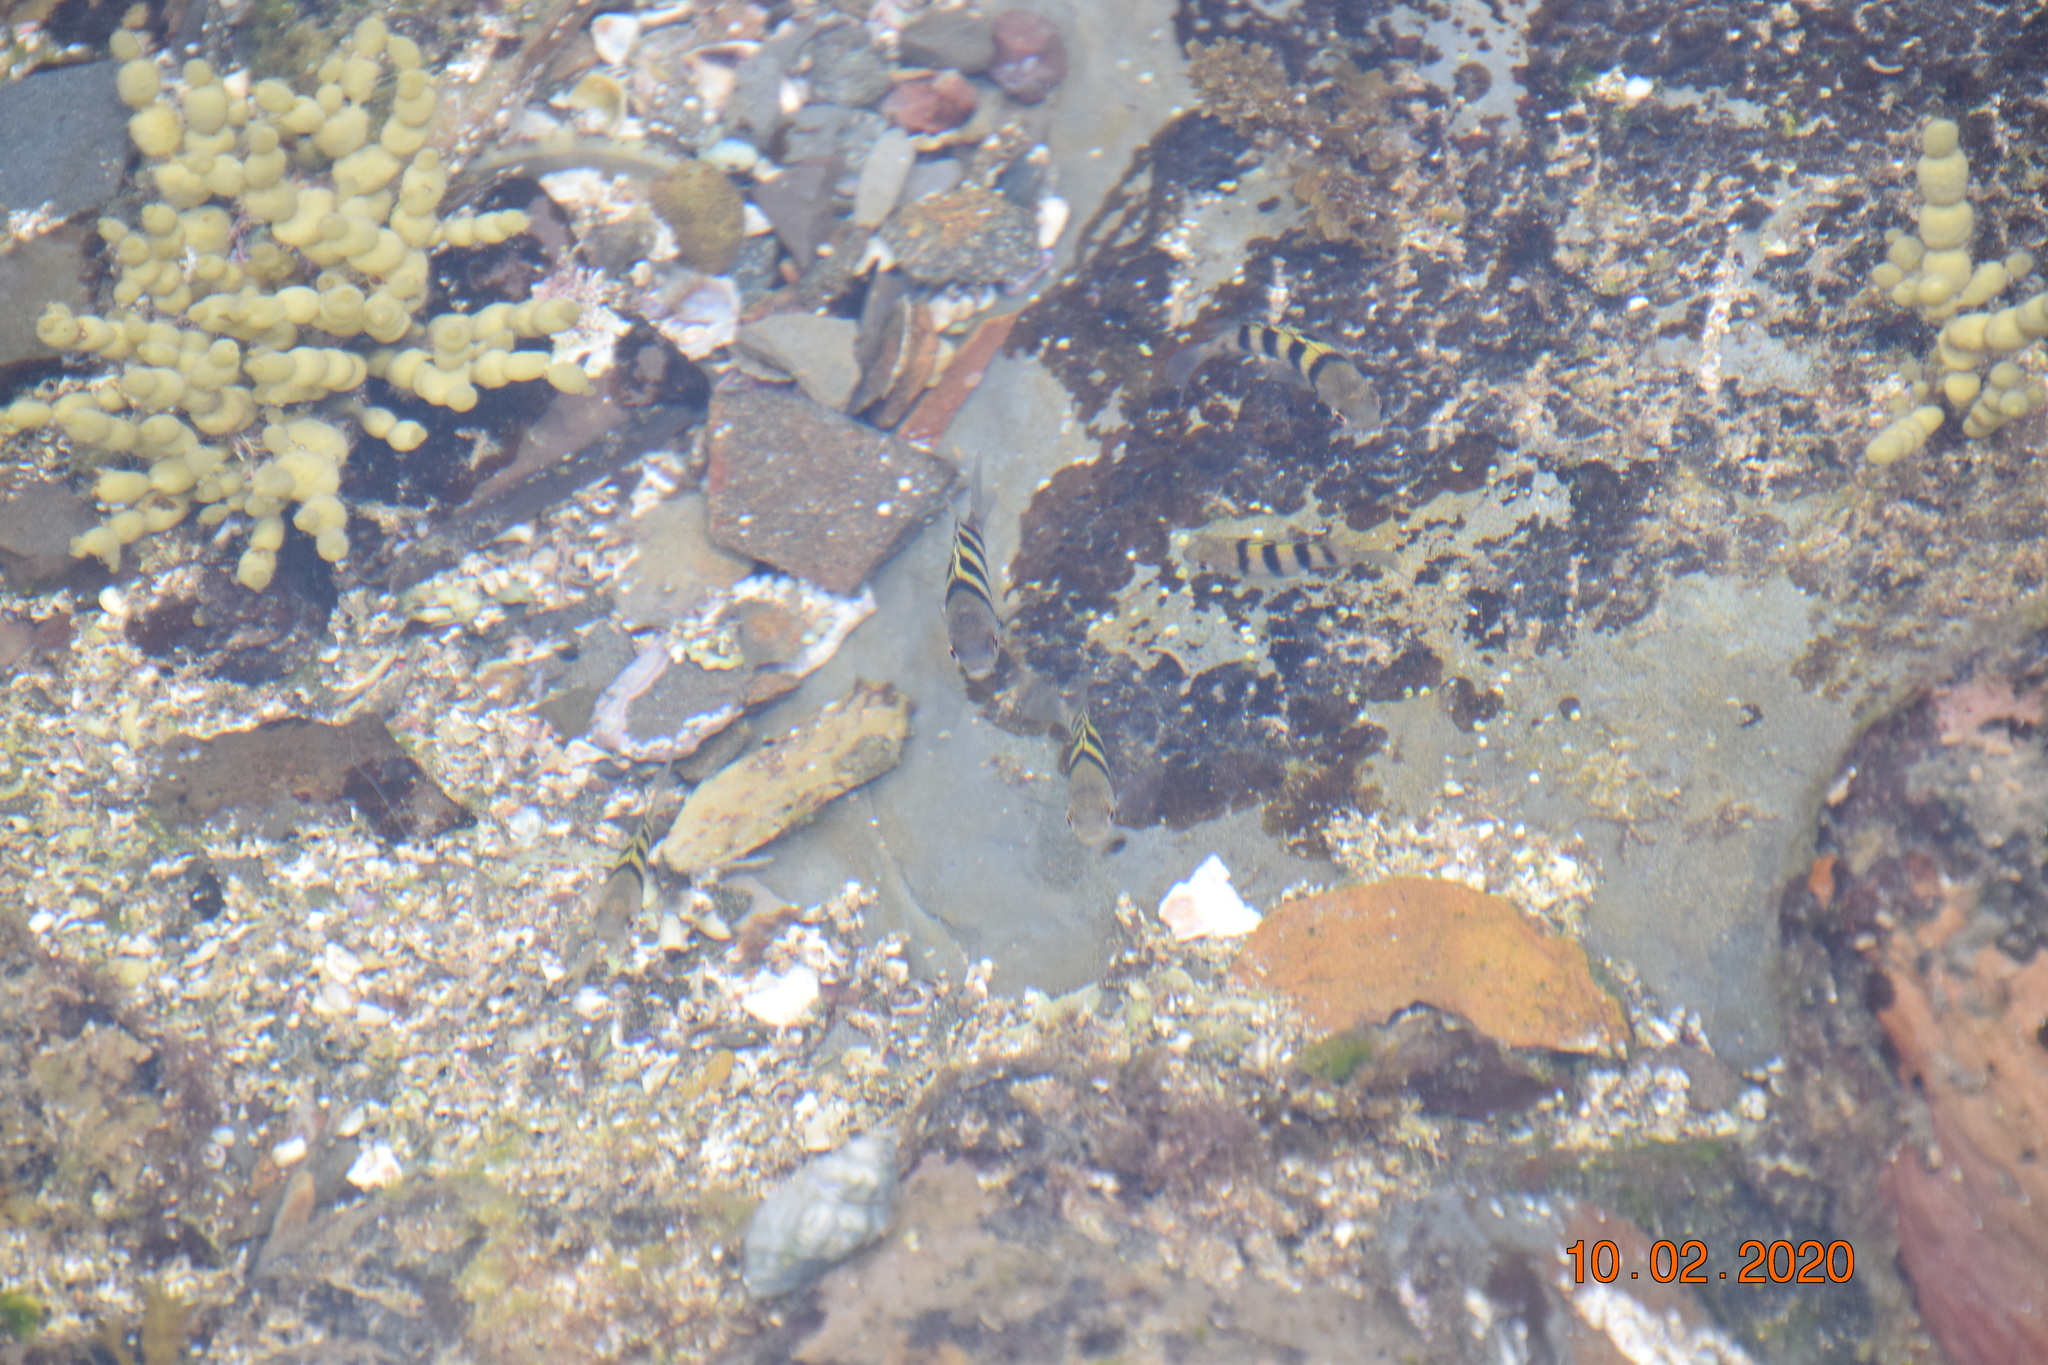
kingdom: Animalia
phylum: Chordata
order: Perciformes
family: Pomacentridae
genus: Abudefduf
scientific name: Abudefduf vaigiensis
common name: Indo-pacific sergeant
